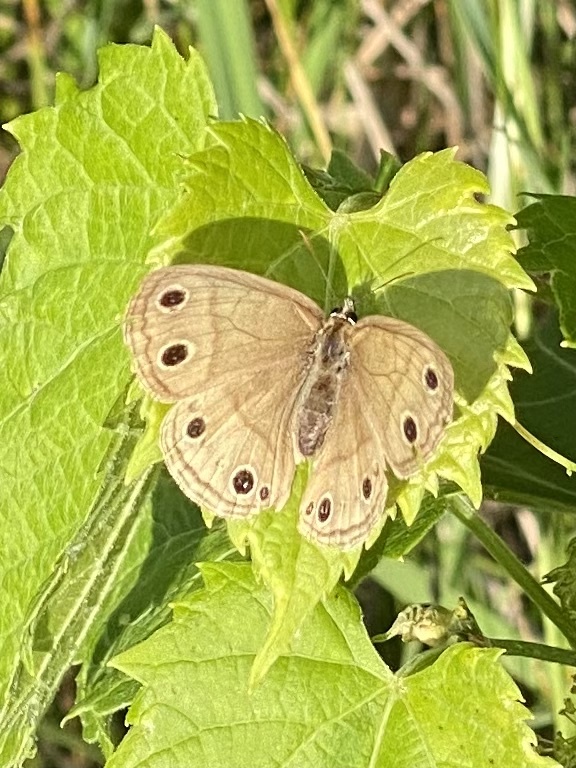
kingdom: Animalia
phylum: Arthropoda
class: Insecta
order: Lepidoptera
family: Nymphalidae
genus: Euptychia
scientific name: Euptychia cymela
